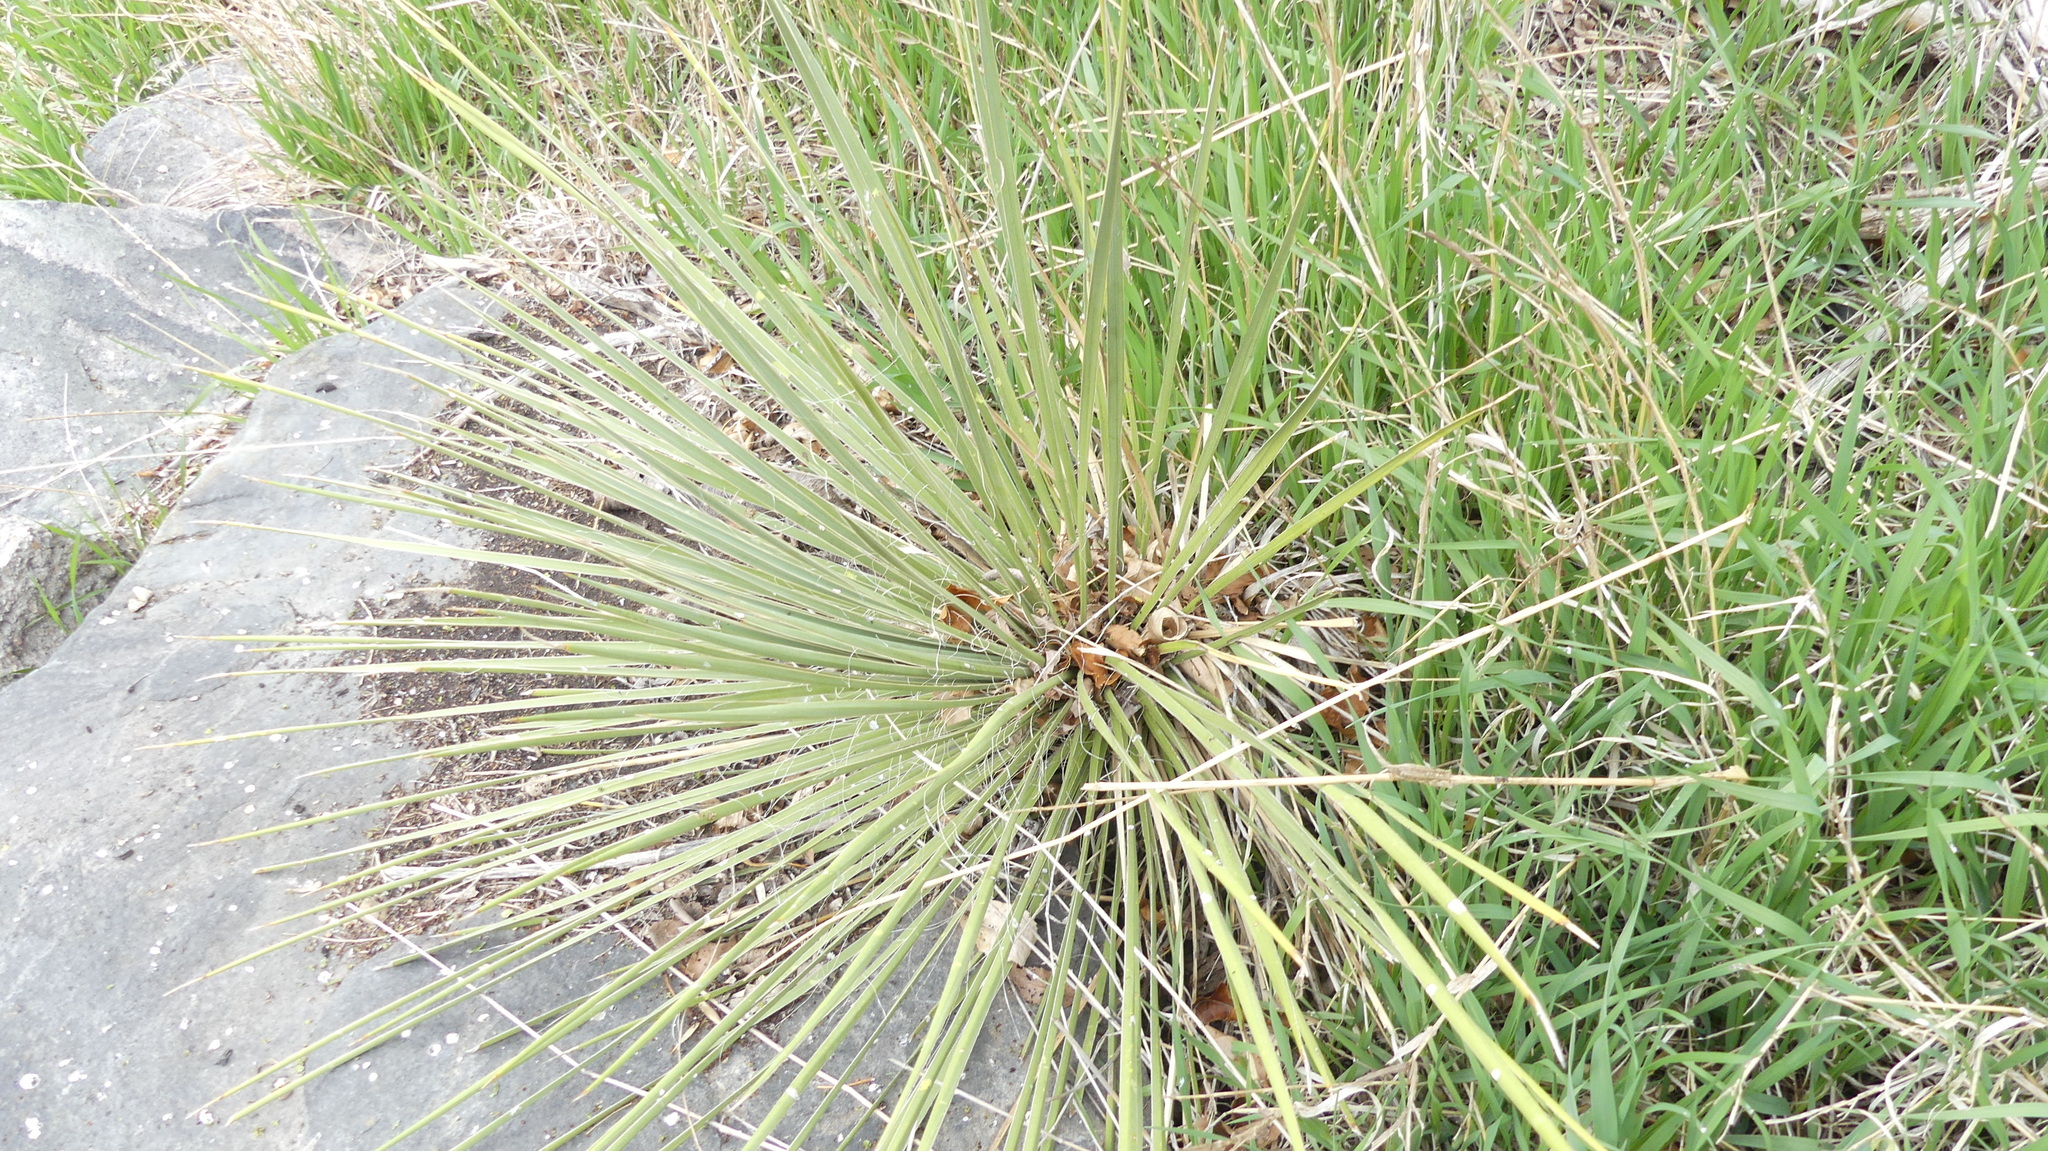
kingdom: Plantae
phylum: Tracheophyta
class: Liliopsida
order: Asparagales
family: Asparagaceae
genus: Yucca
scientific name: Yucca glauca
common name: Great plains yucca
